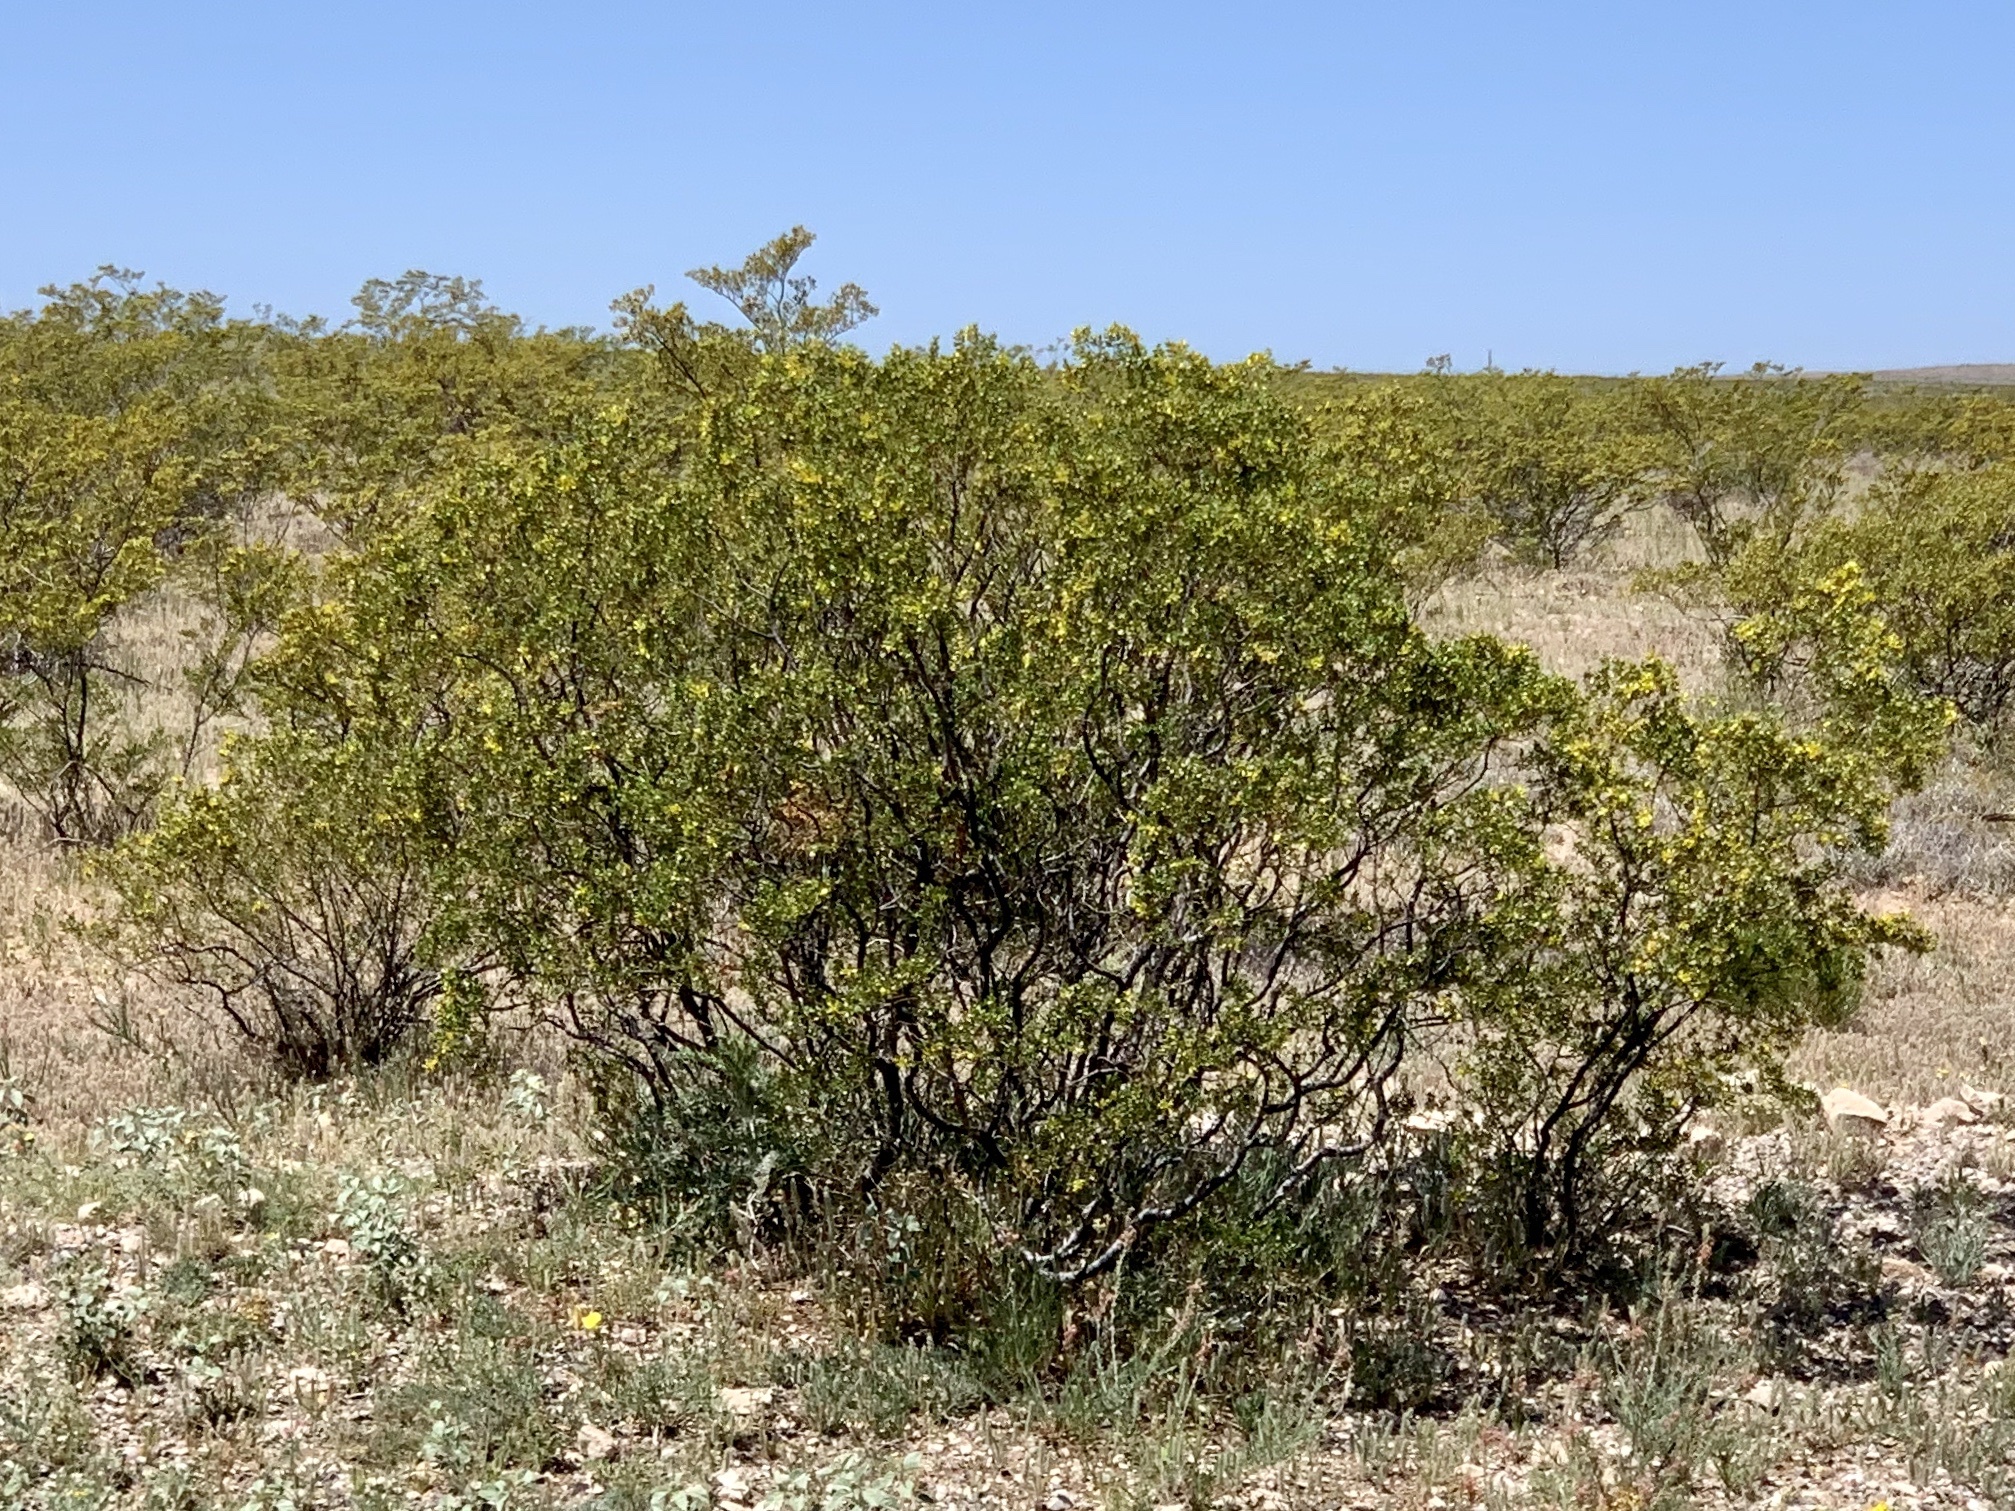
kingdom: Plantae
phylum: Tracheophyta
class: Magnoliopsida
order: Zygophyllales
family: Zygophyllaceae
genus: Larrea
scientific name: Larrea tridentata
